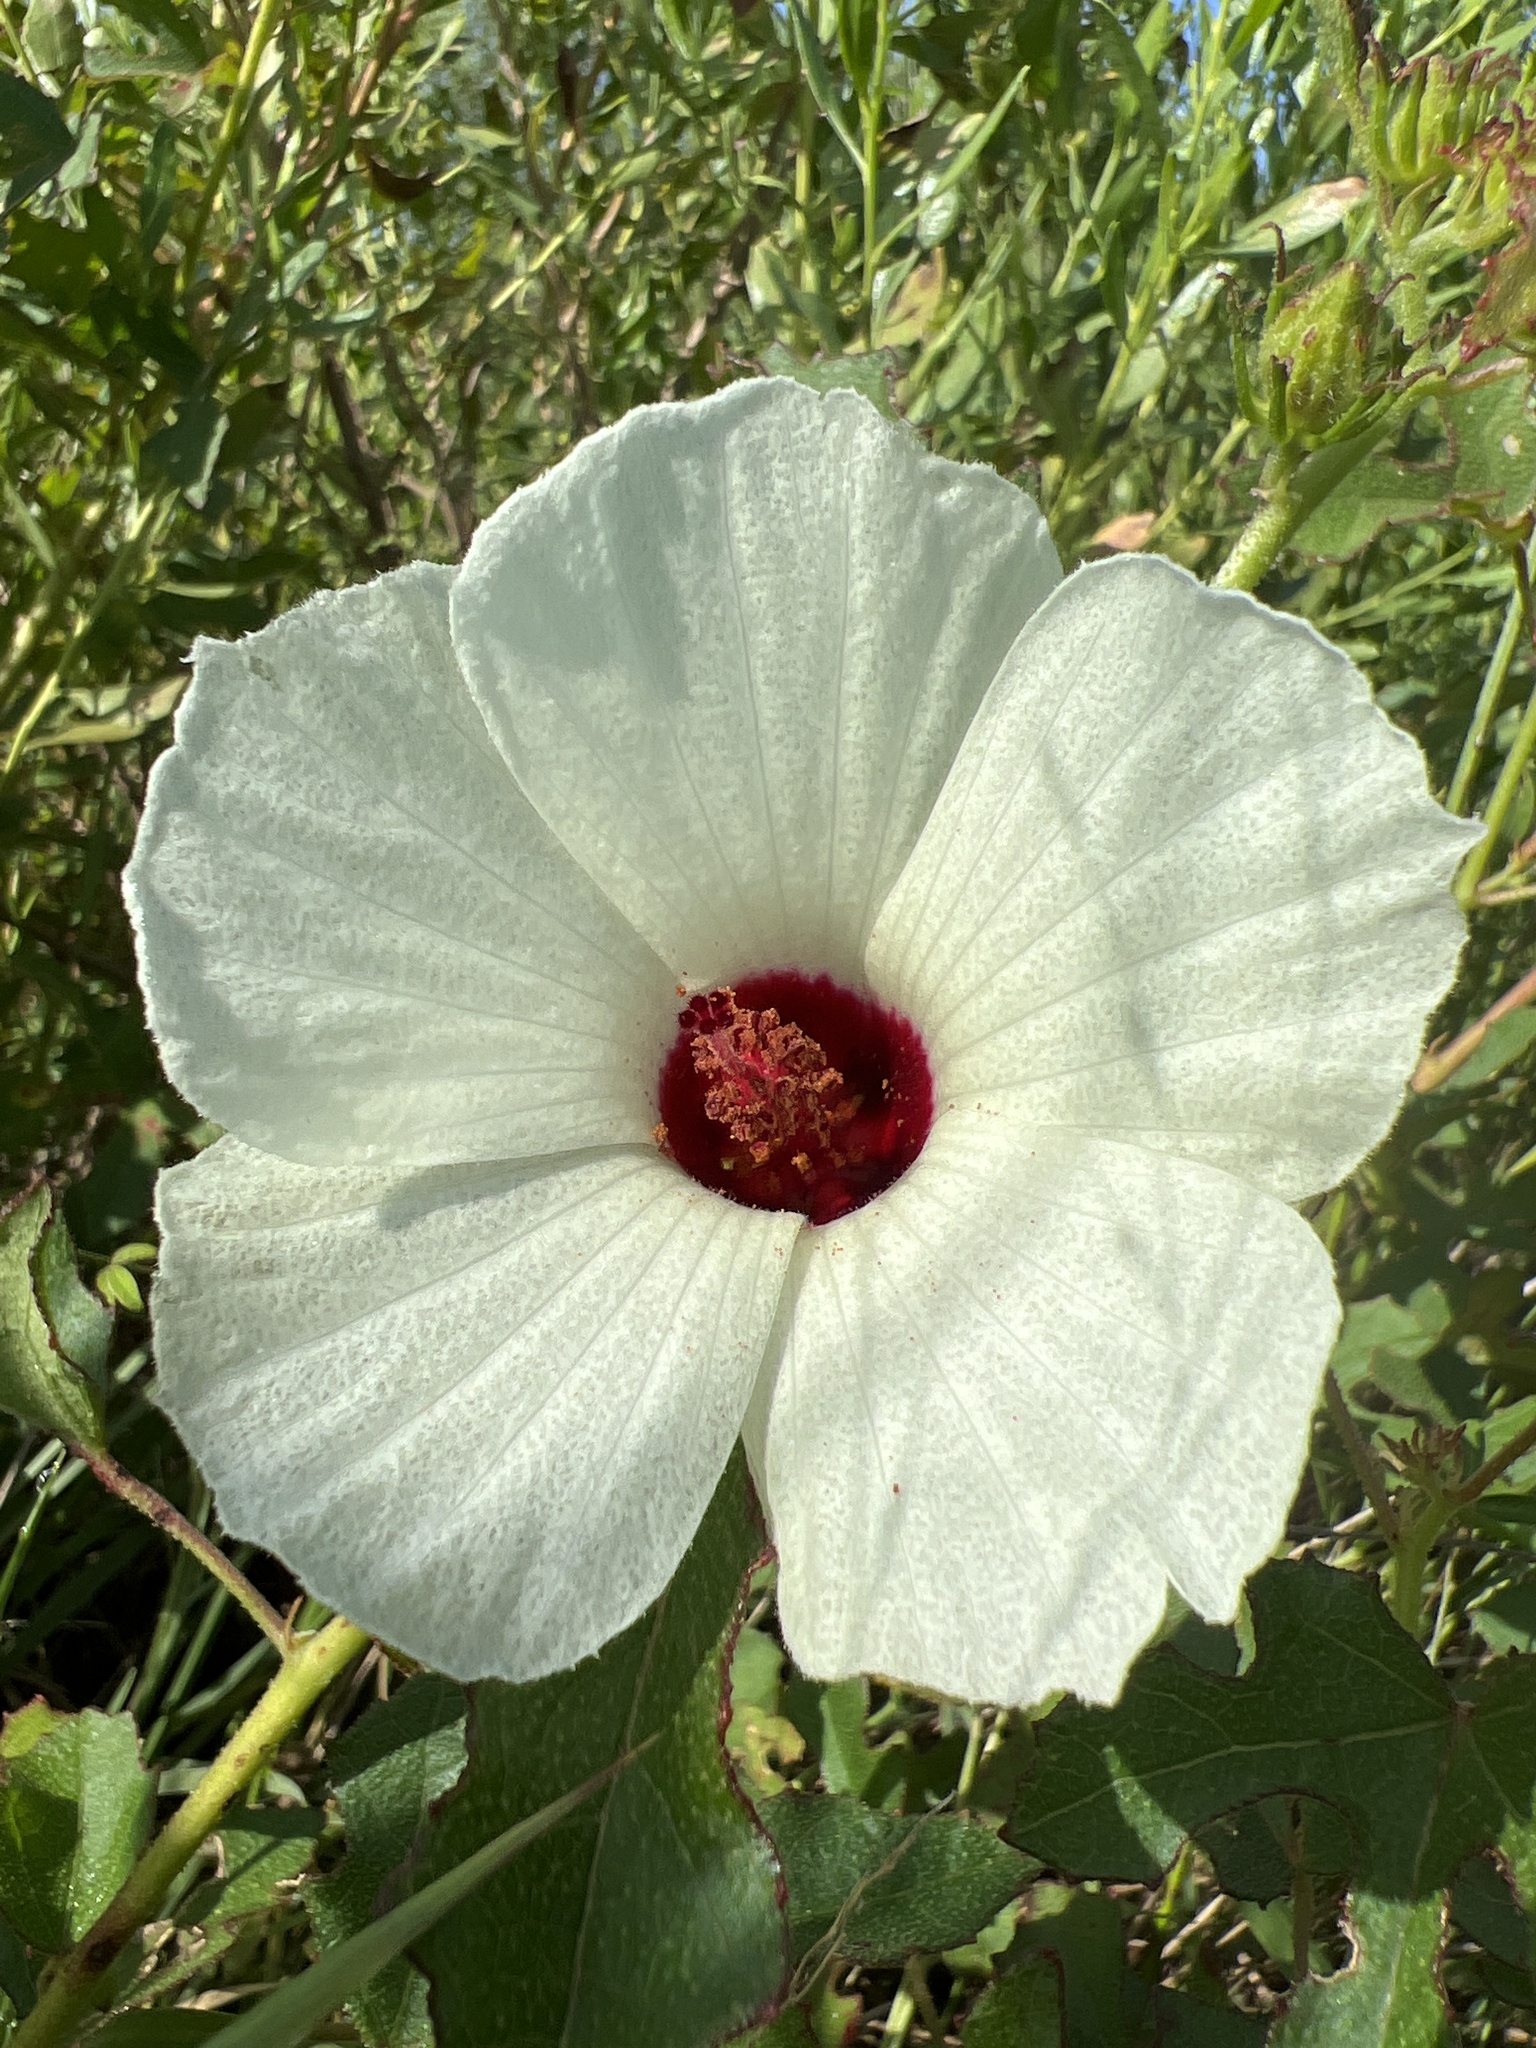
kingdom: Plantae
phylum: Tracheophyta
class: Magnoliopsida
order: Malvales
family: Malvaceae
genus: Hibiscus
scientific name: Hibiscus aculeatus
